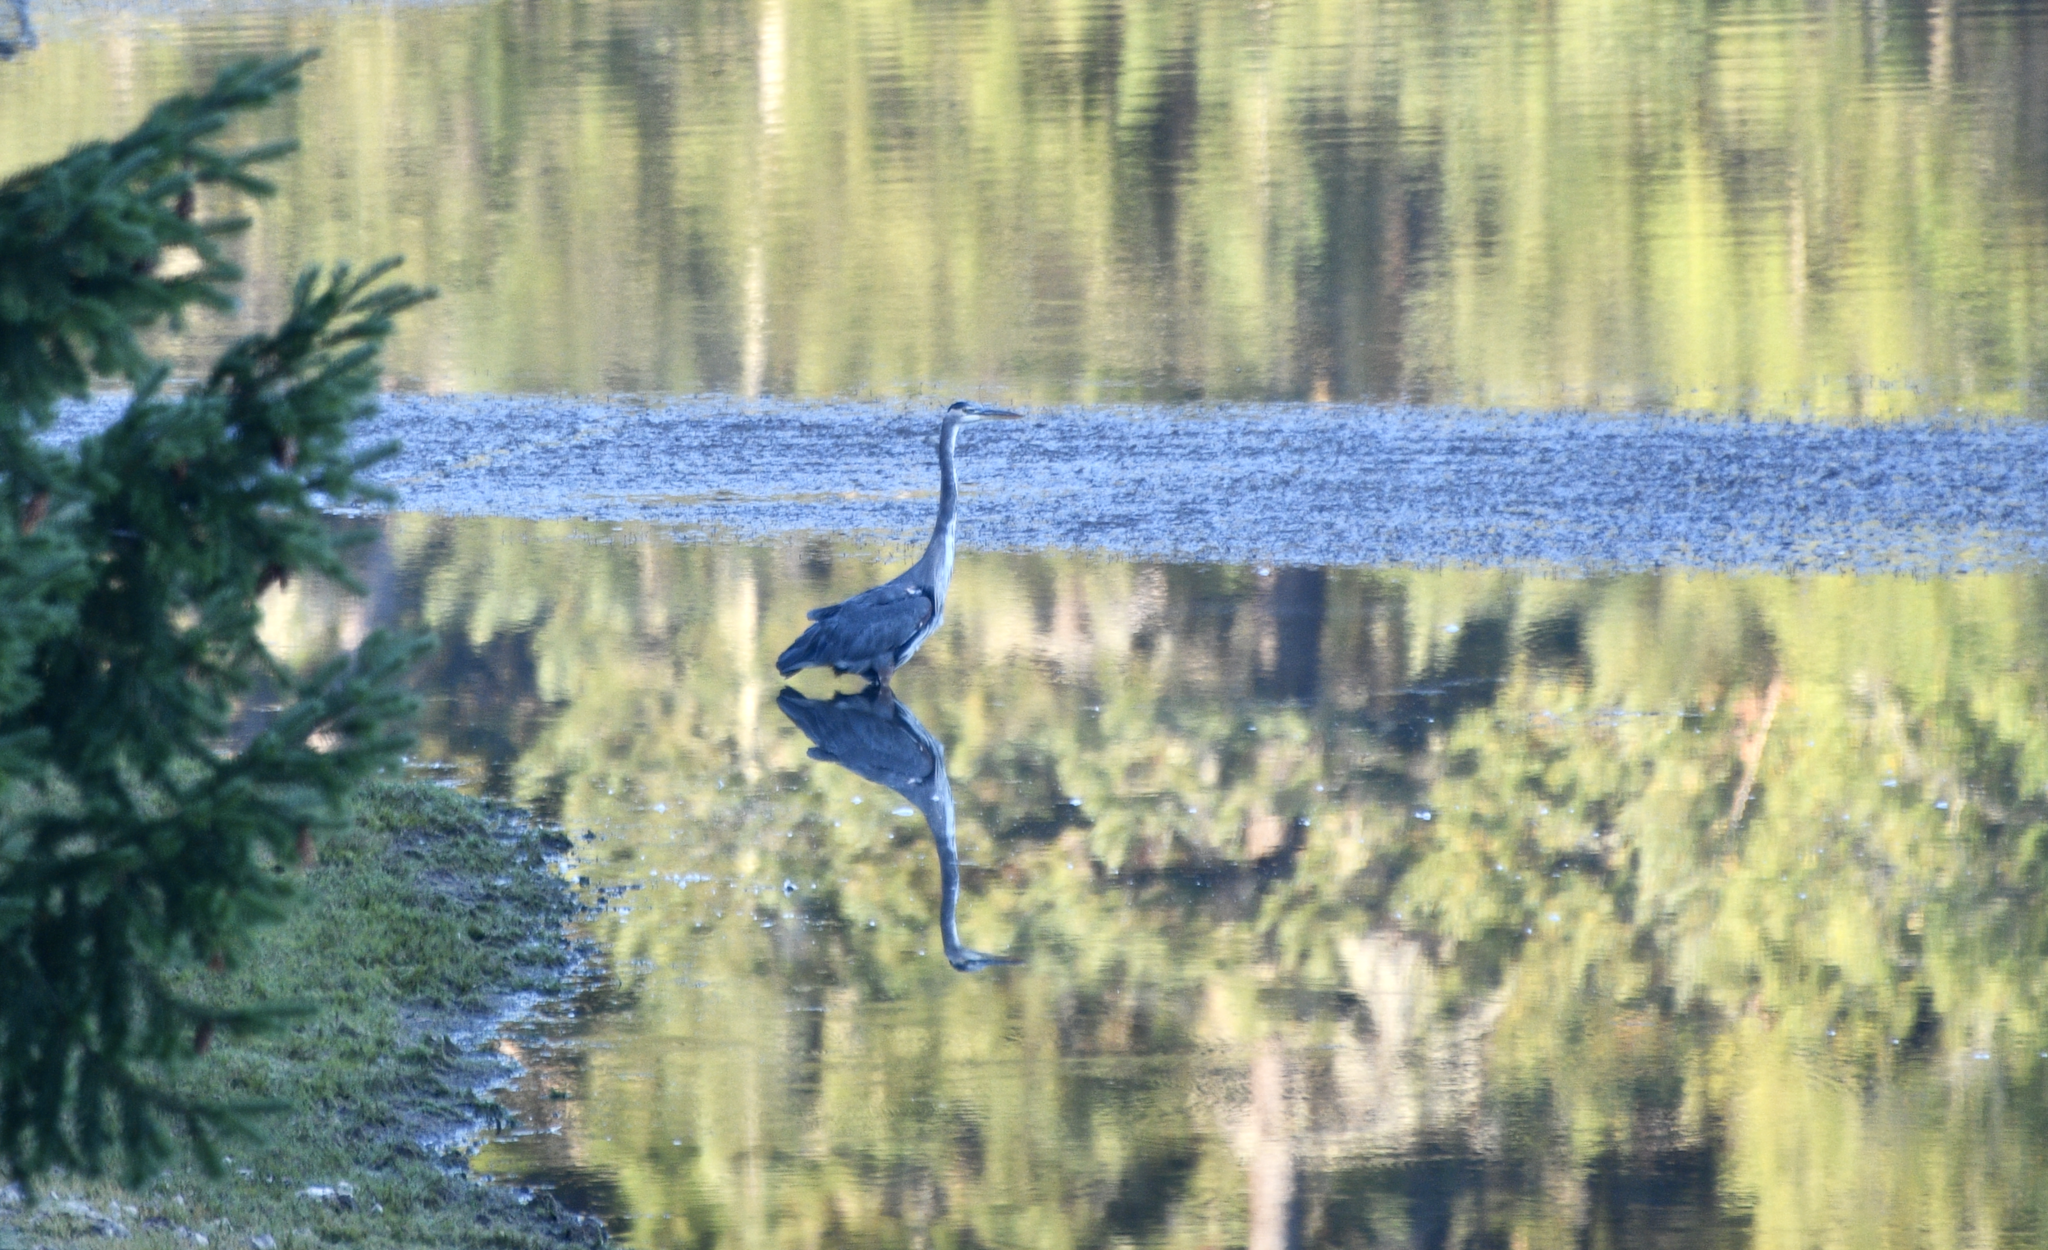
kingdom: Animalia
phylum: Chordata
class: Aves
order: Pelecaniformes
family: Ardeidae
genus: Ardea
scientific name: Ardea herodias
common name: Great blue heron
